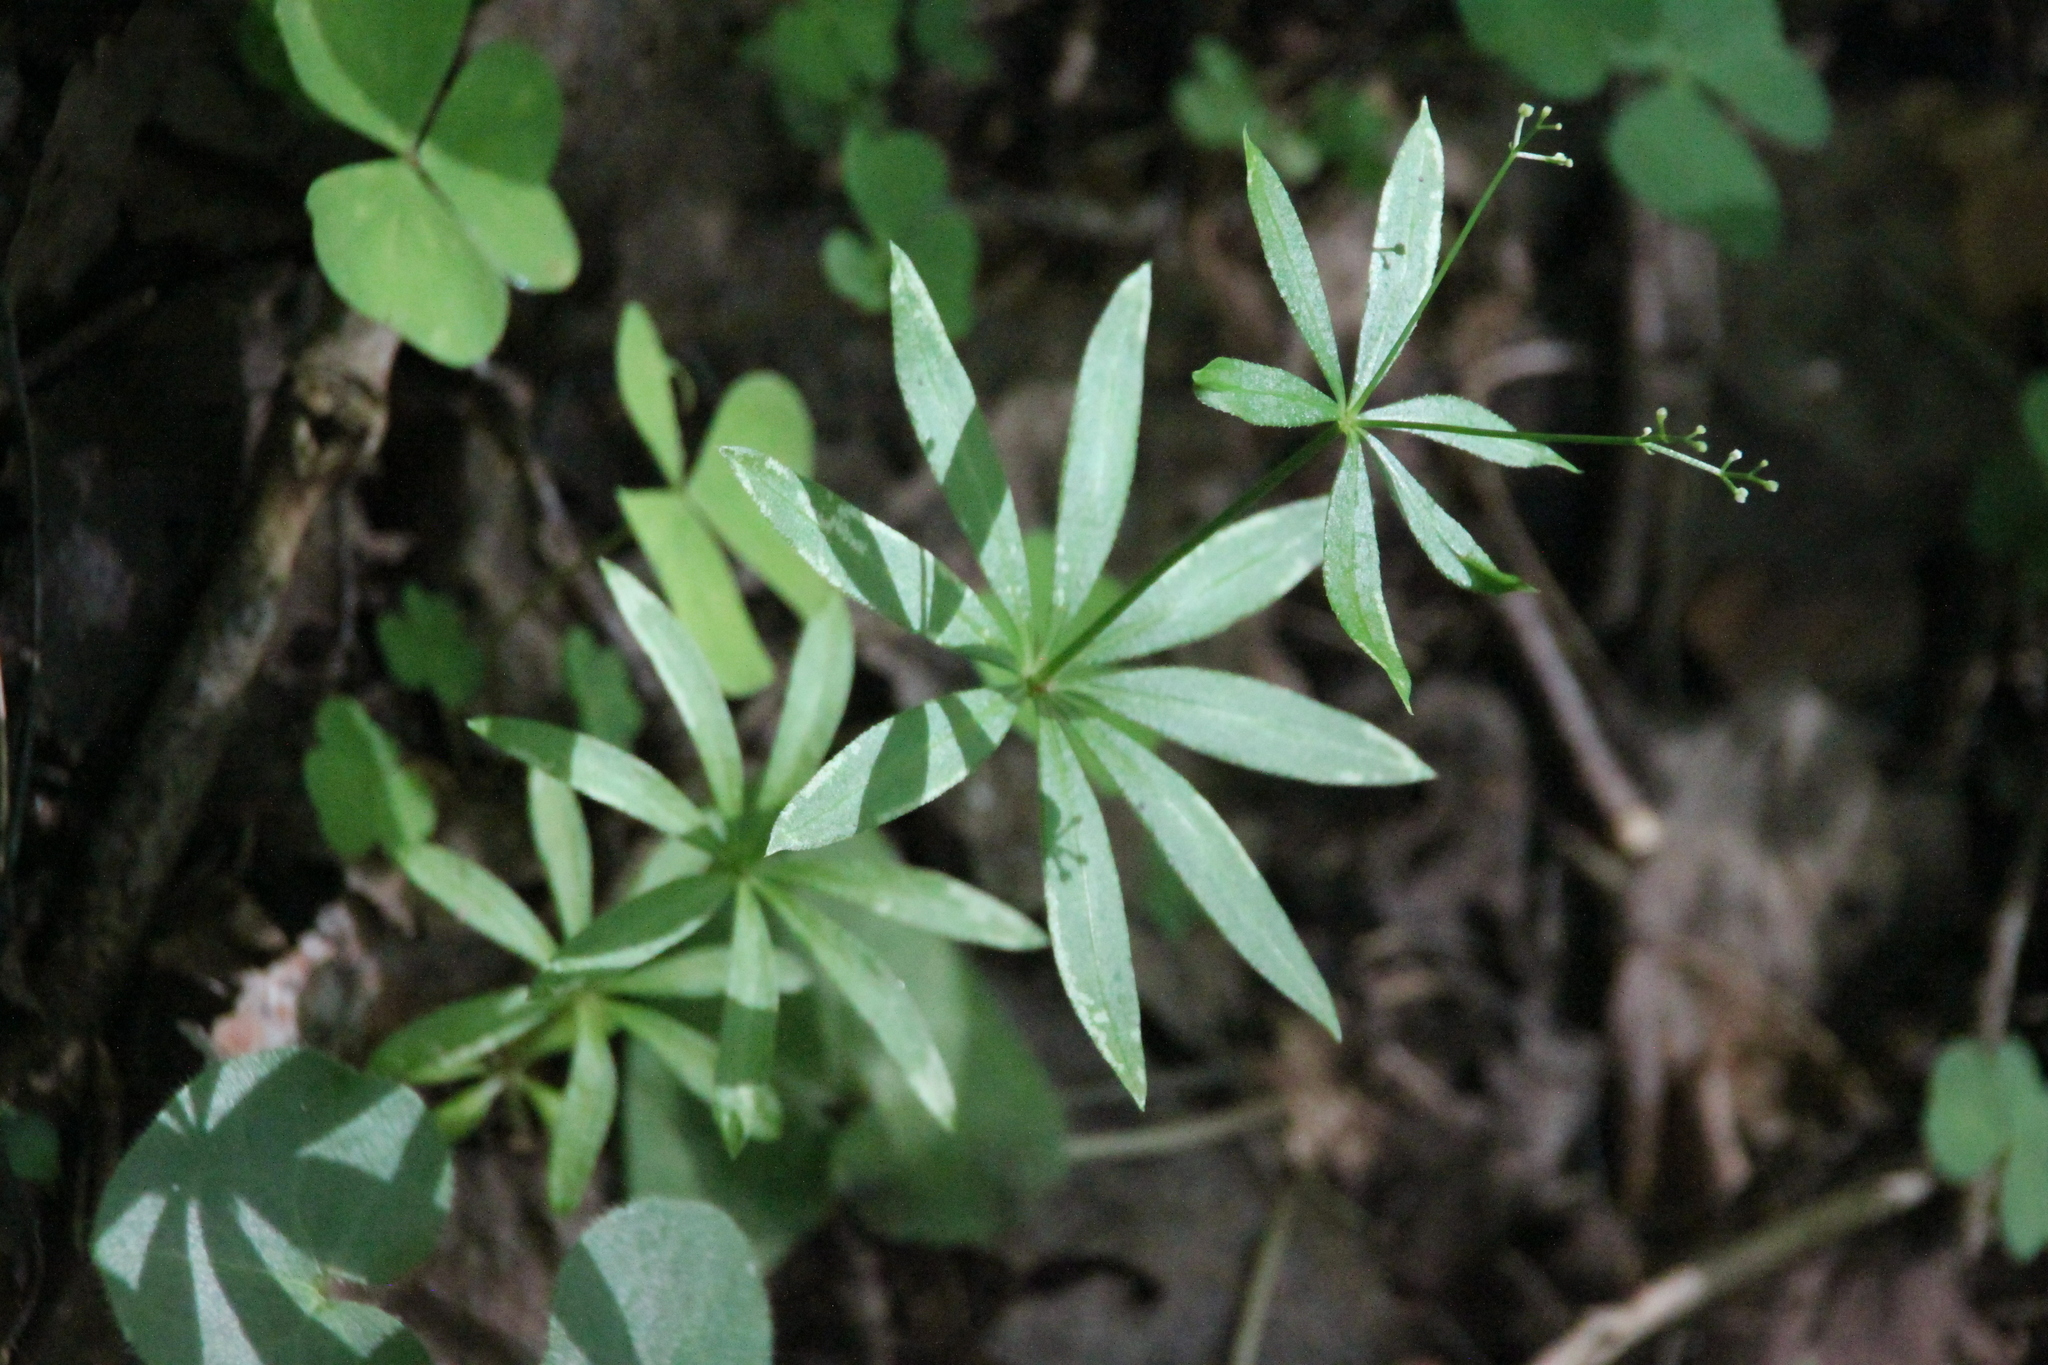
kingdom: Plantae
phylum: Tracheophyta
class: Magnoliopsida
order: Gentianales
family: Rubiaceae
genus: Galium
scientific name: Galium odoratum
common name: Sweet woodruff
